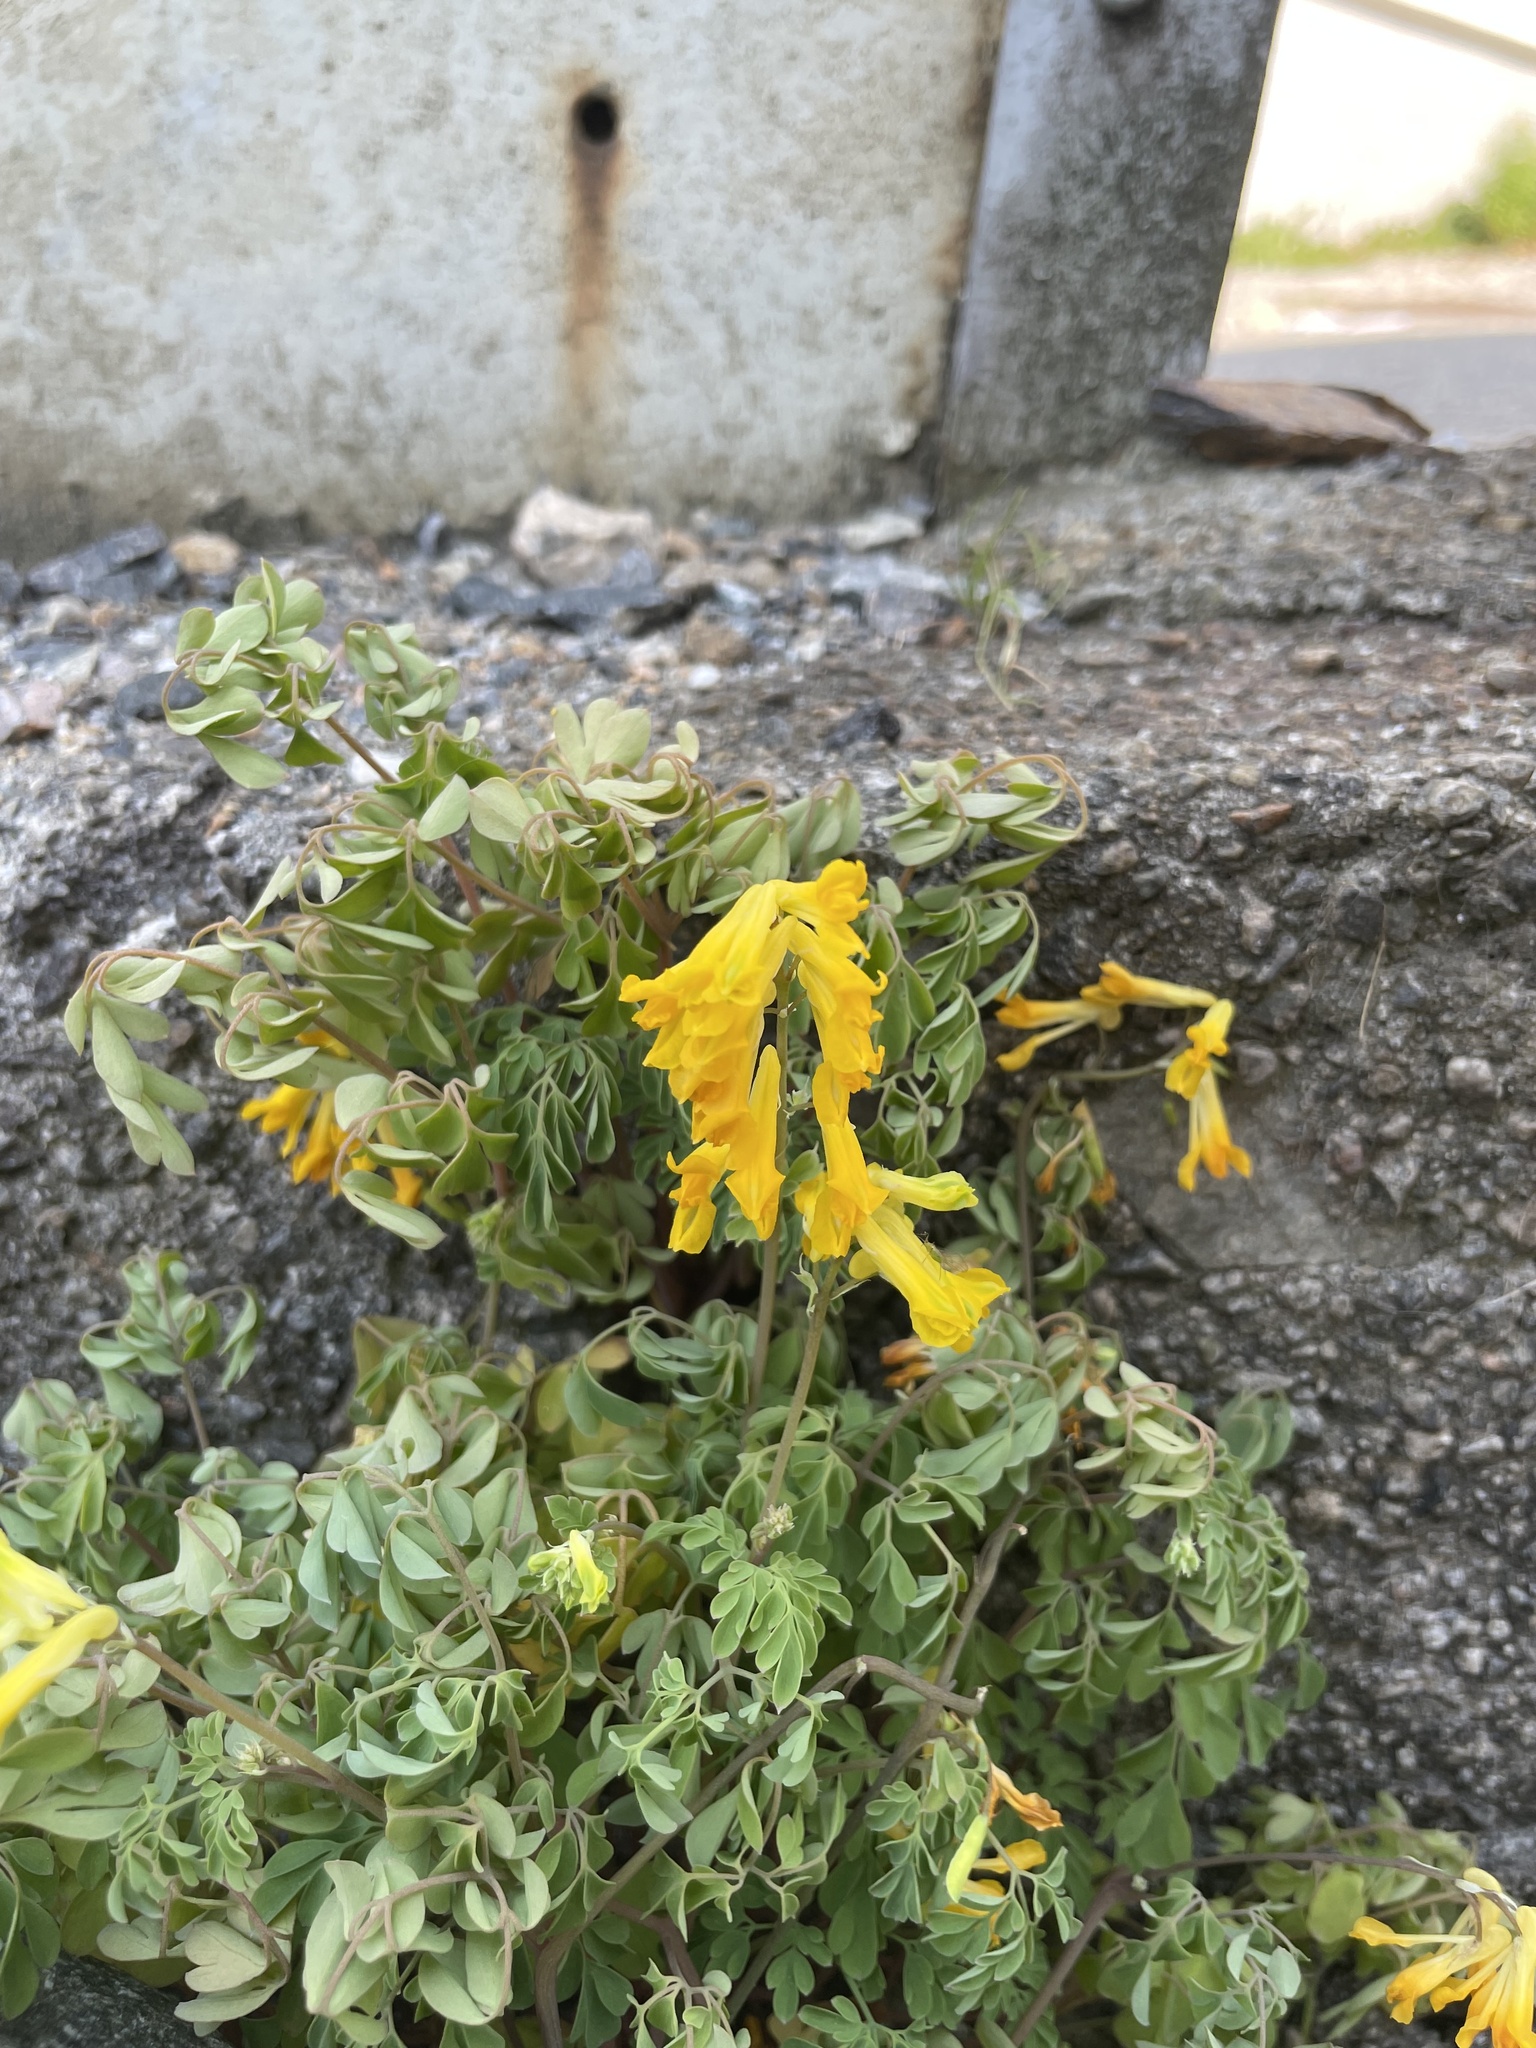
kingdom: Plantae
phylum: Tracheophyta
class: Magnoliopsida
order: Ranunculales
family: Papaveraceae
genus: Pseudofumaria
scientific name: Pseudofumaria lutea
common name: Yellow corydalis
